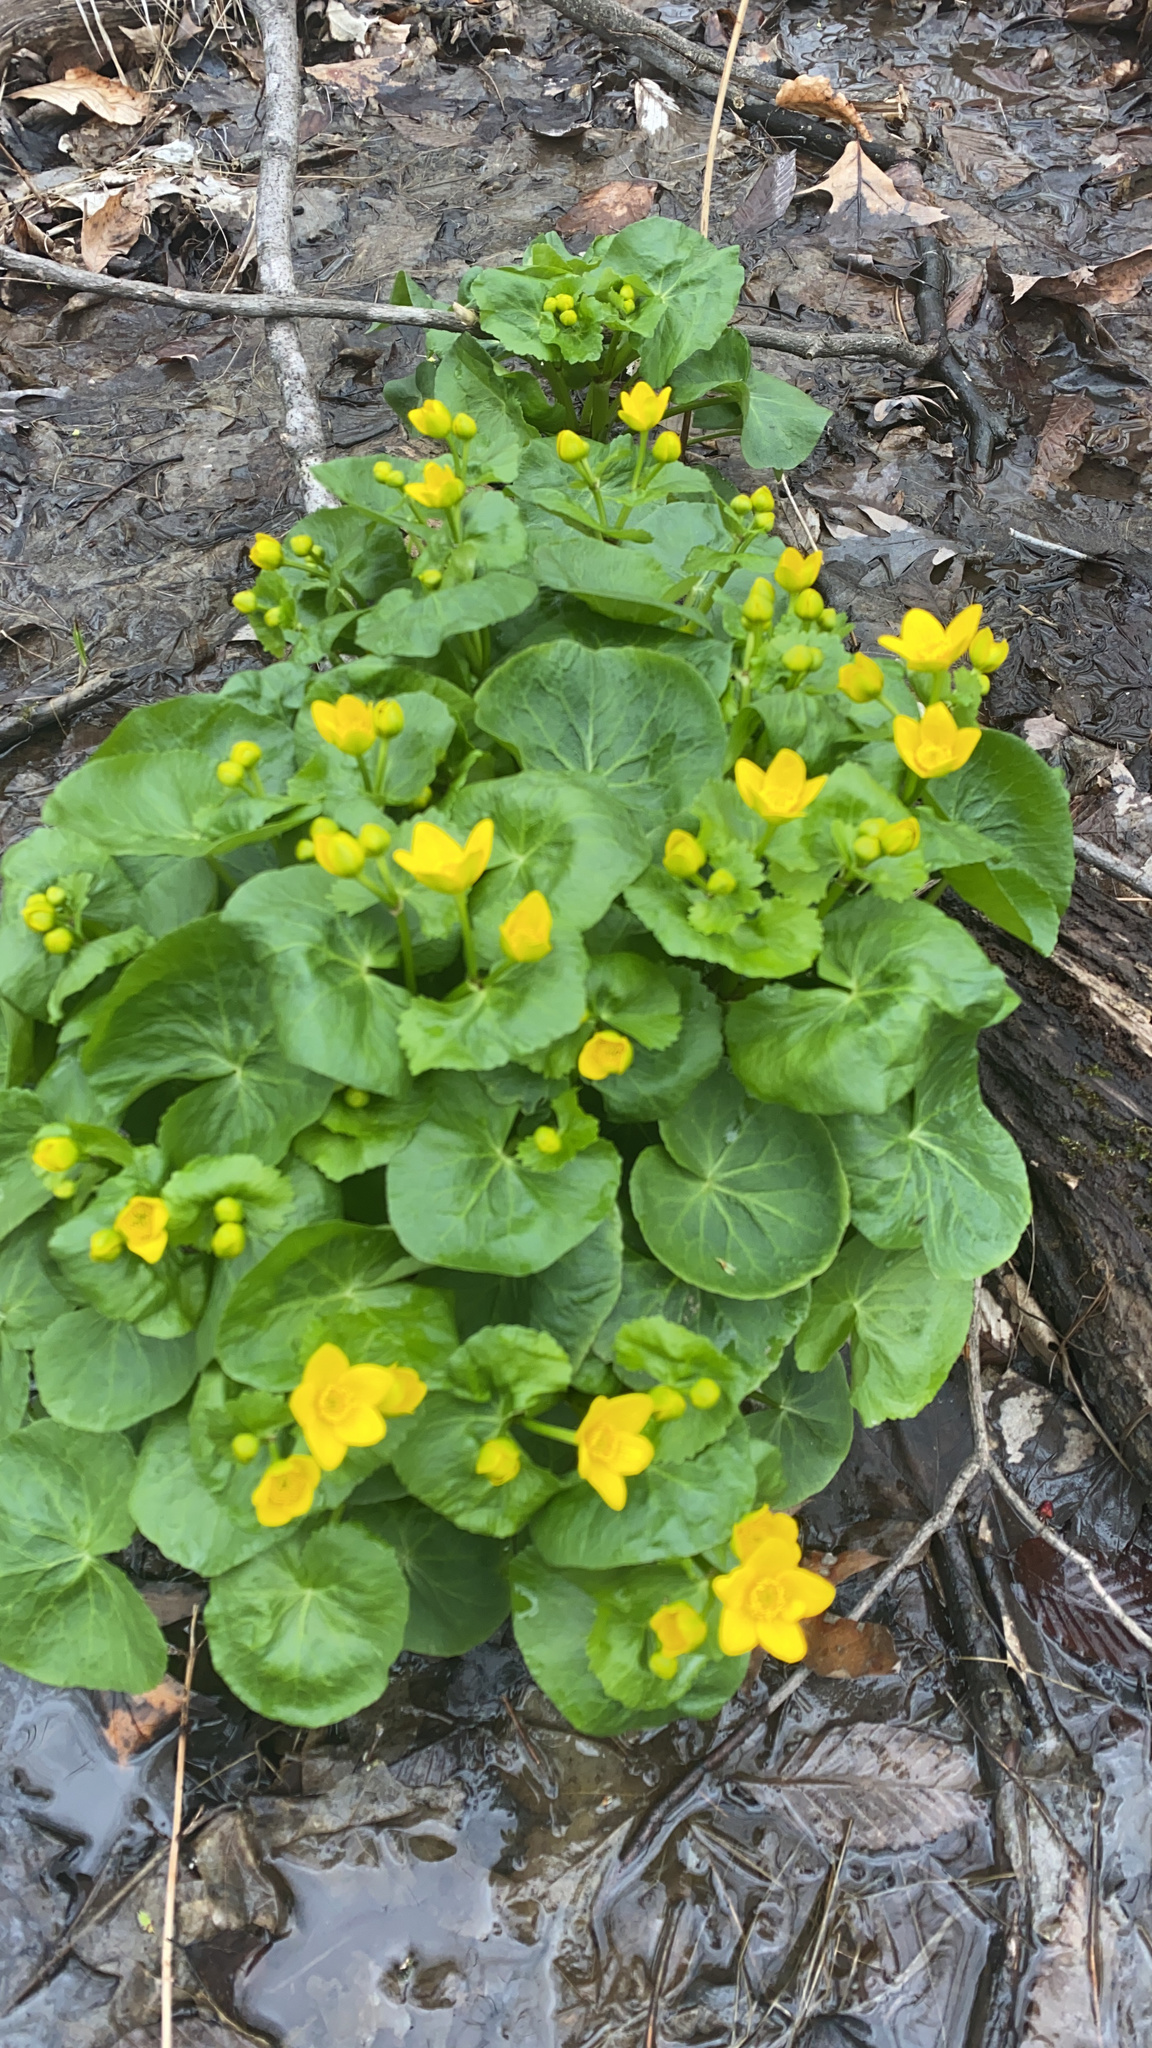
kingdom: Plantae
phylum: Tracheophyta
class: Magnoliopsida
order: Ranunculales
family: Ranunculaceae
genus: Caltha
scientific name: Caltha palustris
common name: Marsh marigold
